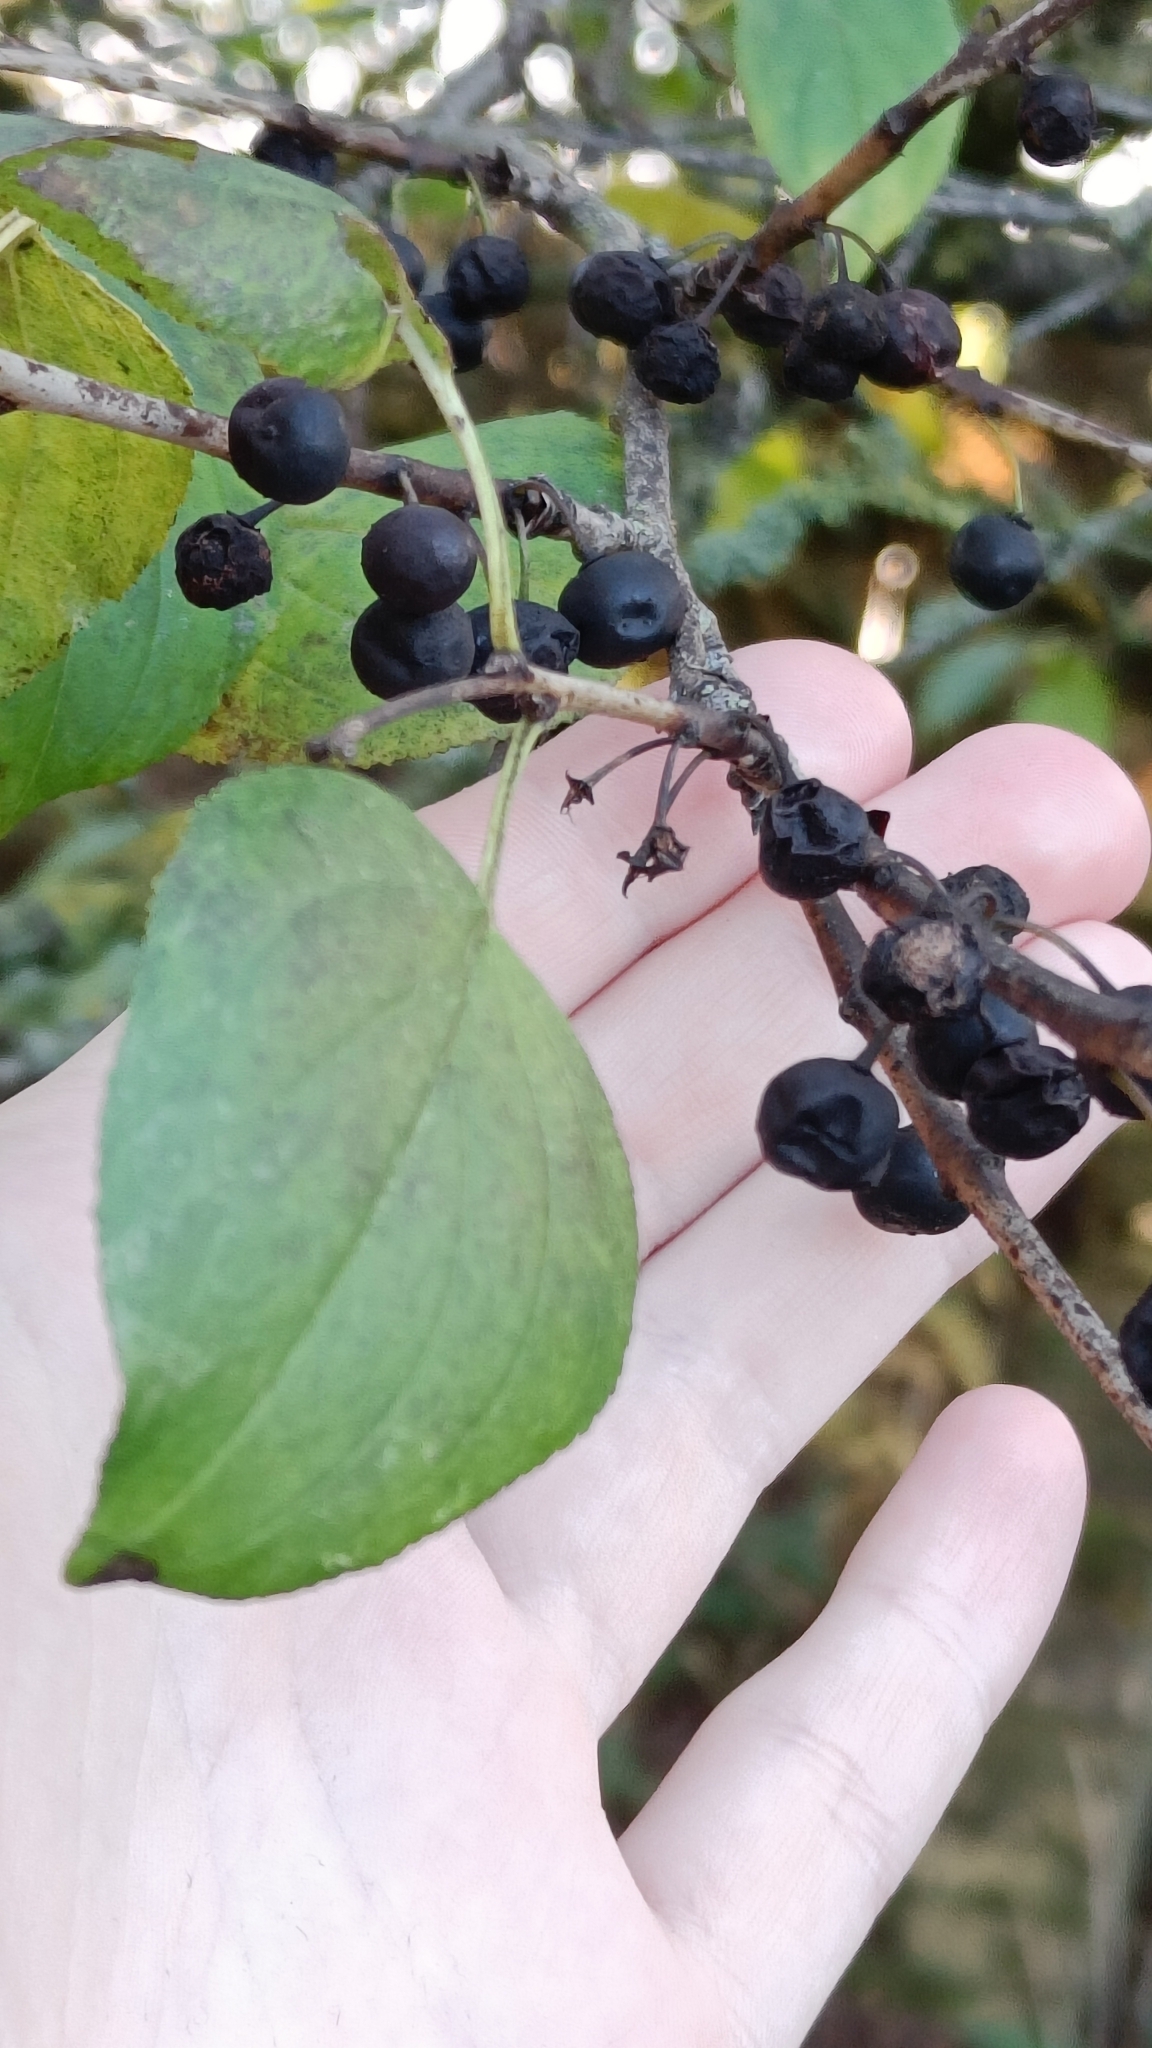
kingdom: Plantae
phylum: Tracheophyta
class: Magnoliopsida
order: Rosales
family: Rhamnaceae
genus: Rhamnus
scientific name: Rhamnus cathartica
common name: Common buckthorn
